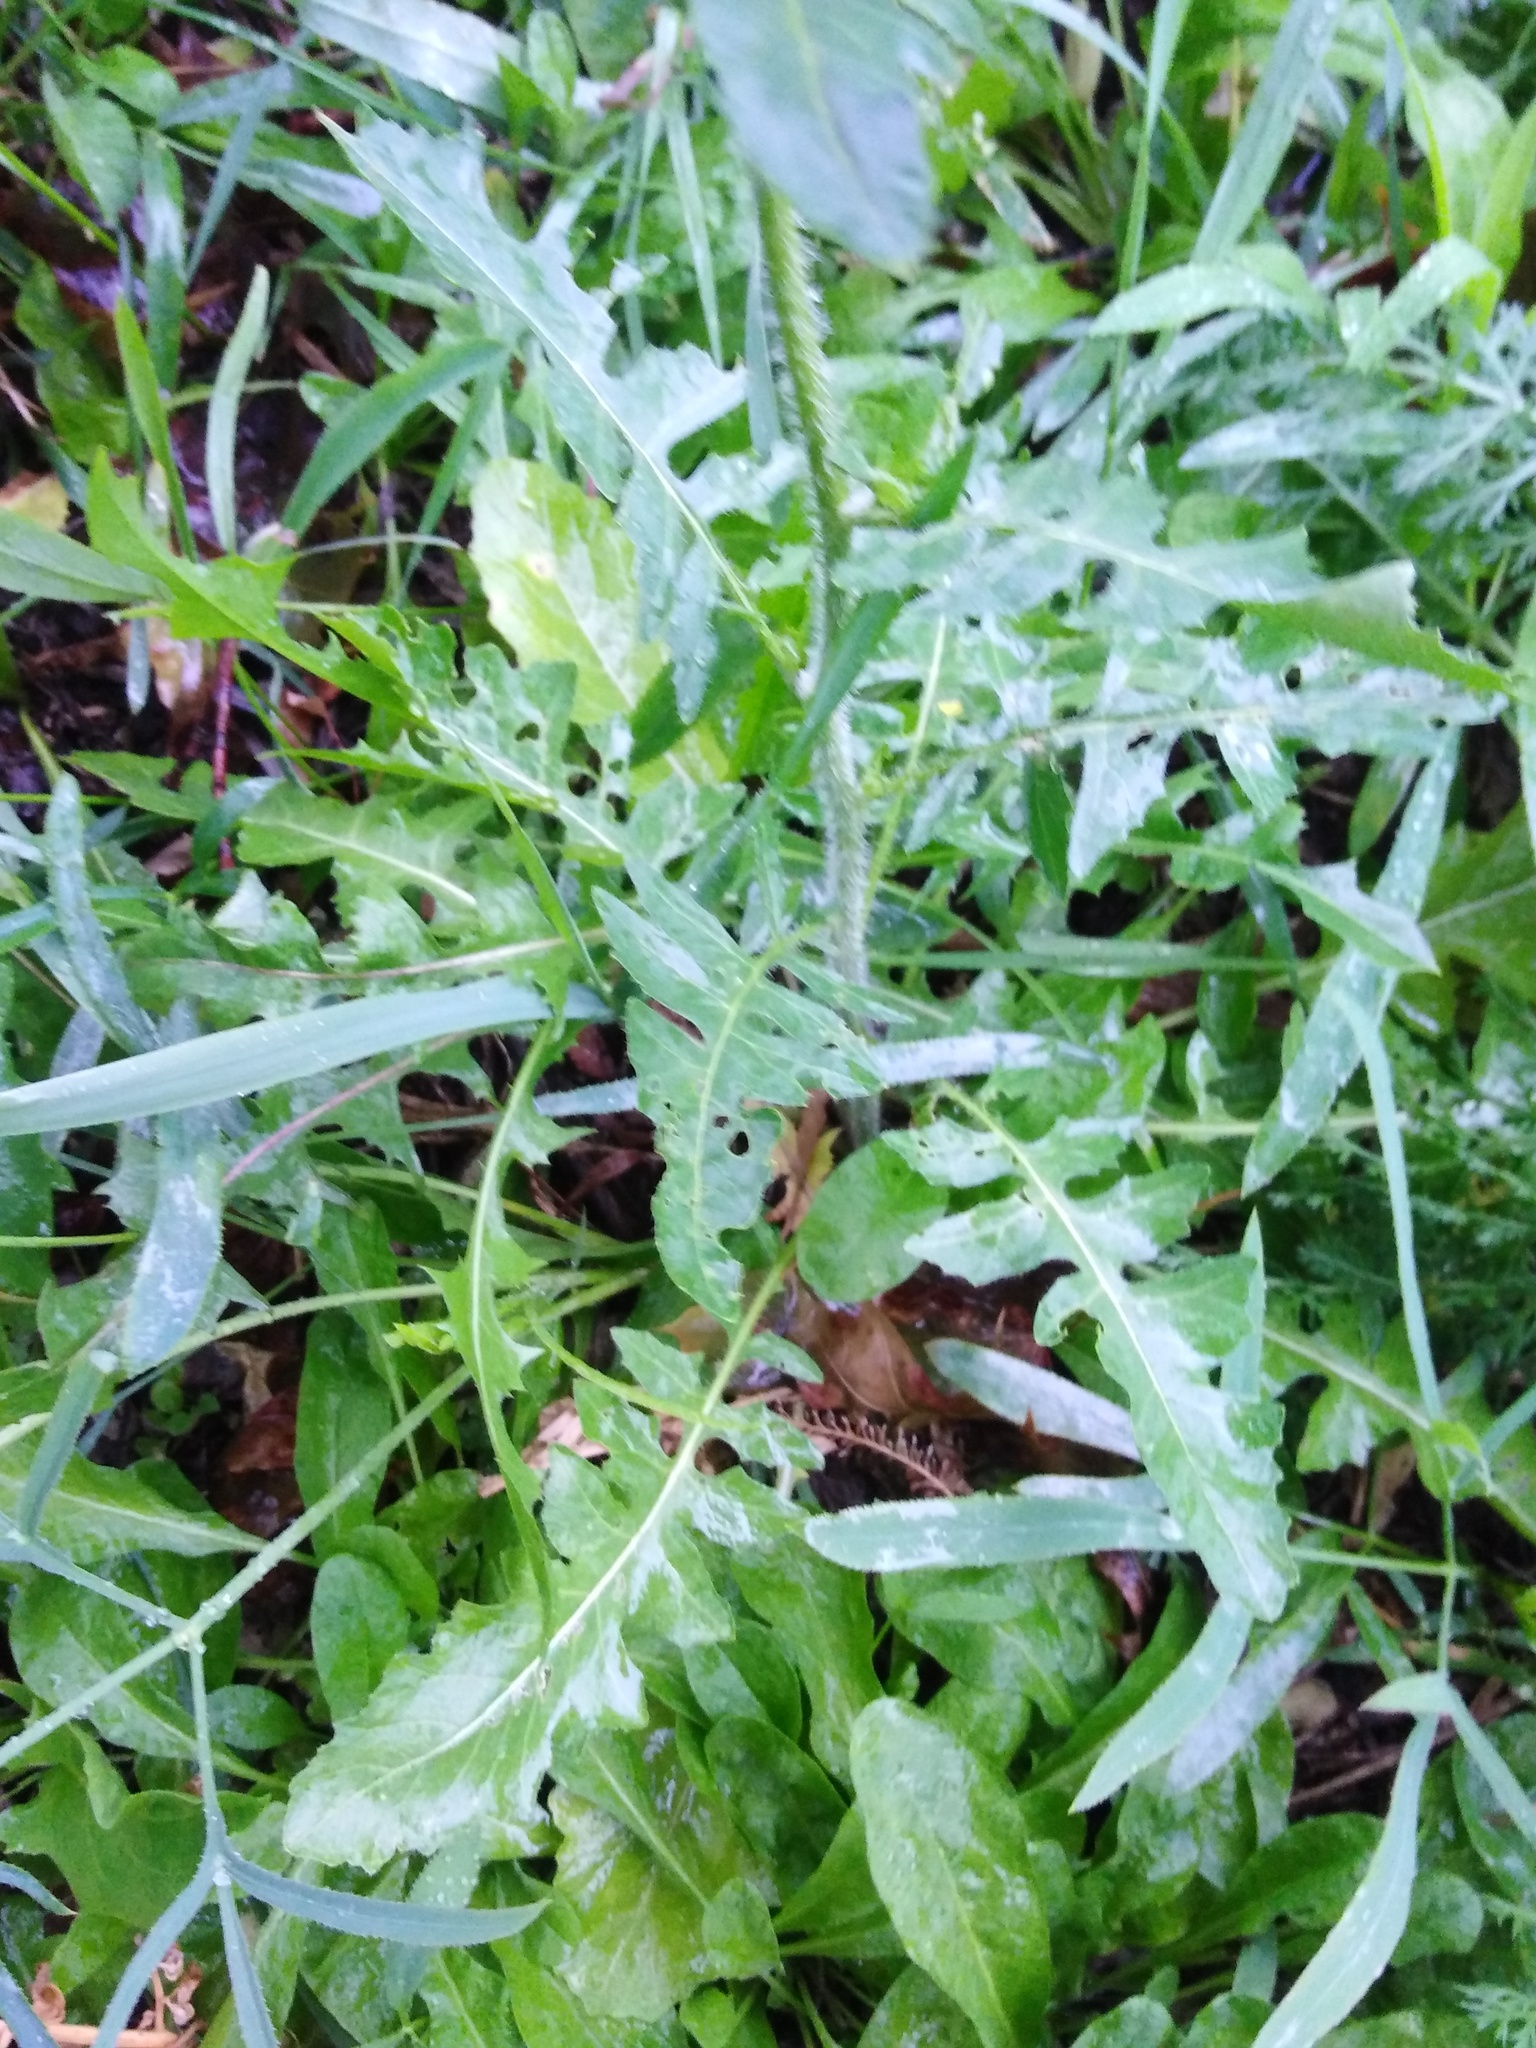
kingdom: Plantae
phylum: Tracheophyta
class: Magnoliopsida
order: Brassicales
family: Brassicaceae
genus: Sisymbrium
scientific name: Sisymbrium loeselii
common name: False london-rocket
